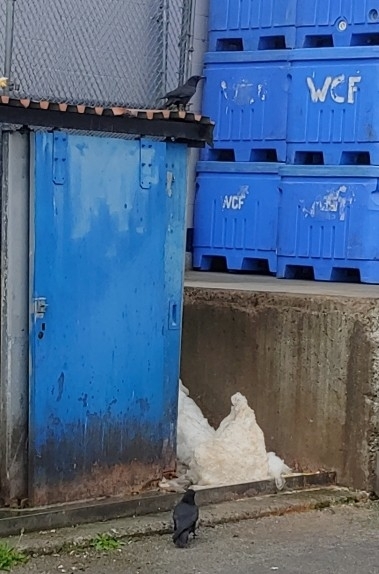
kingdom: Animalia
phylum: Chordata
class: Aves
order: Passeriformes
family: Corvidae
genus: Corvus
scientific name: Corvus brachyrhynchos
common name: American crow
